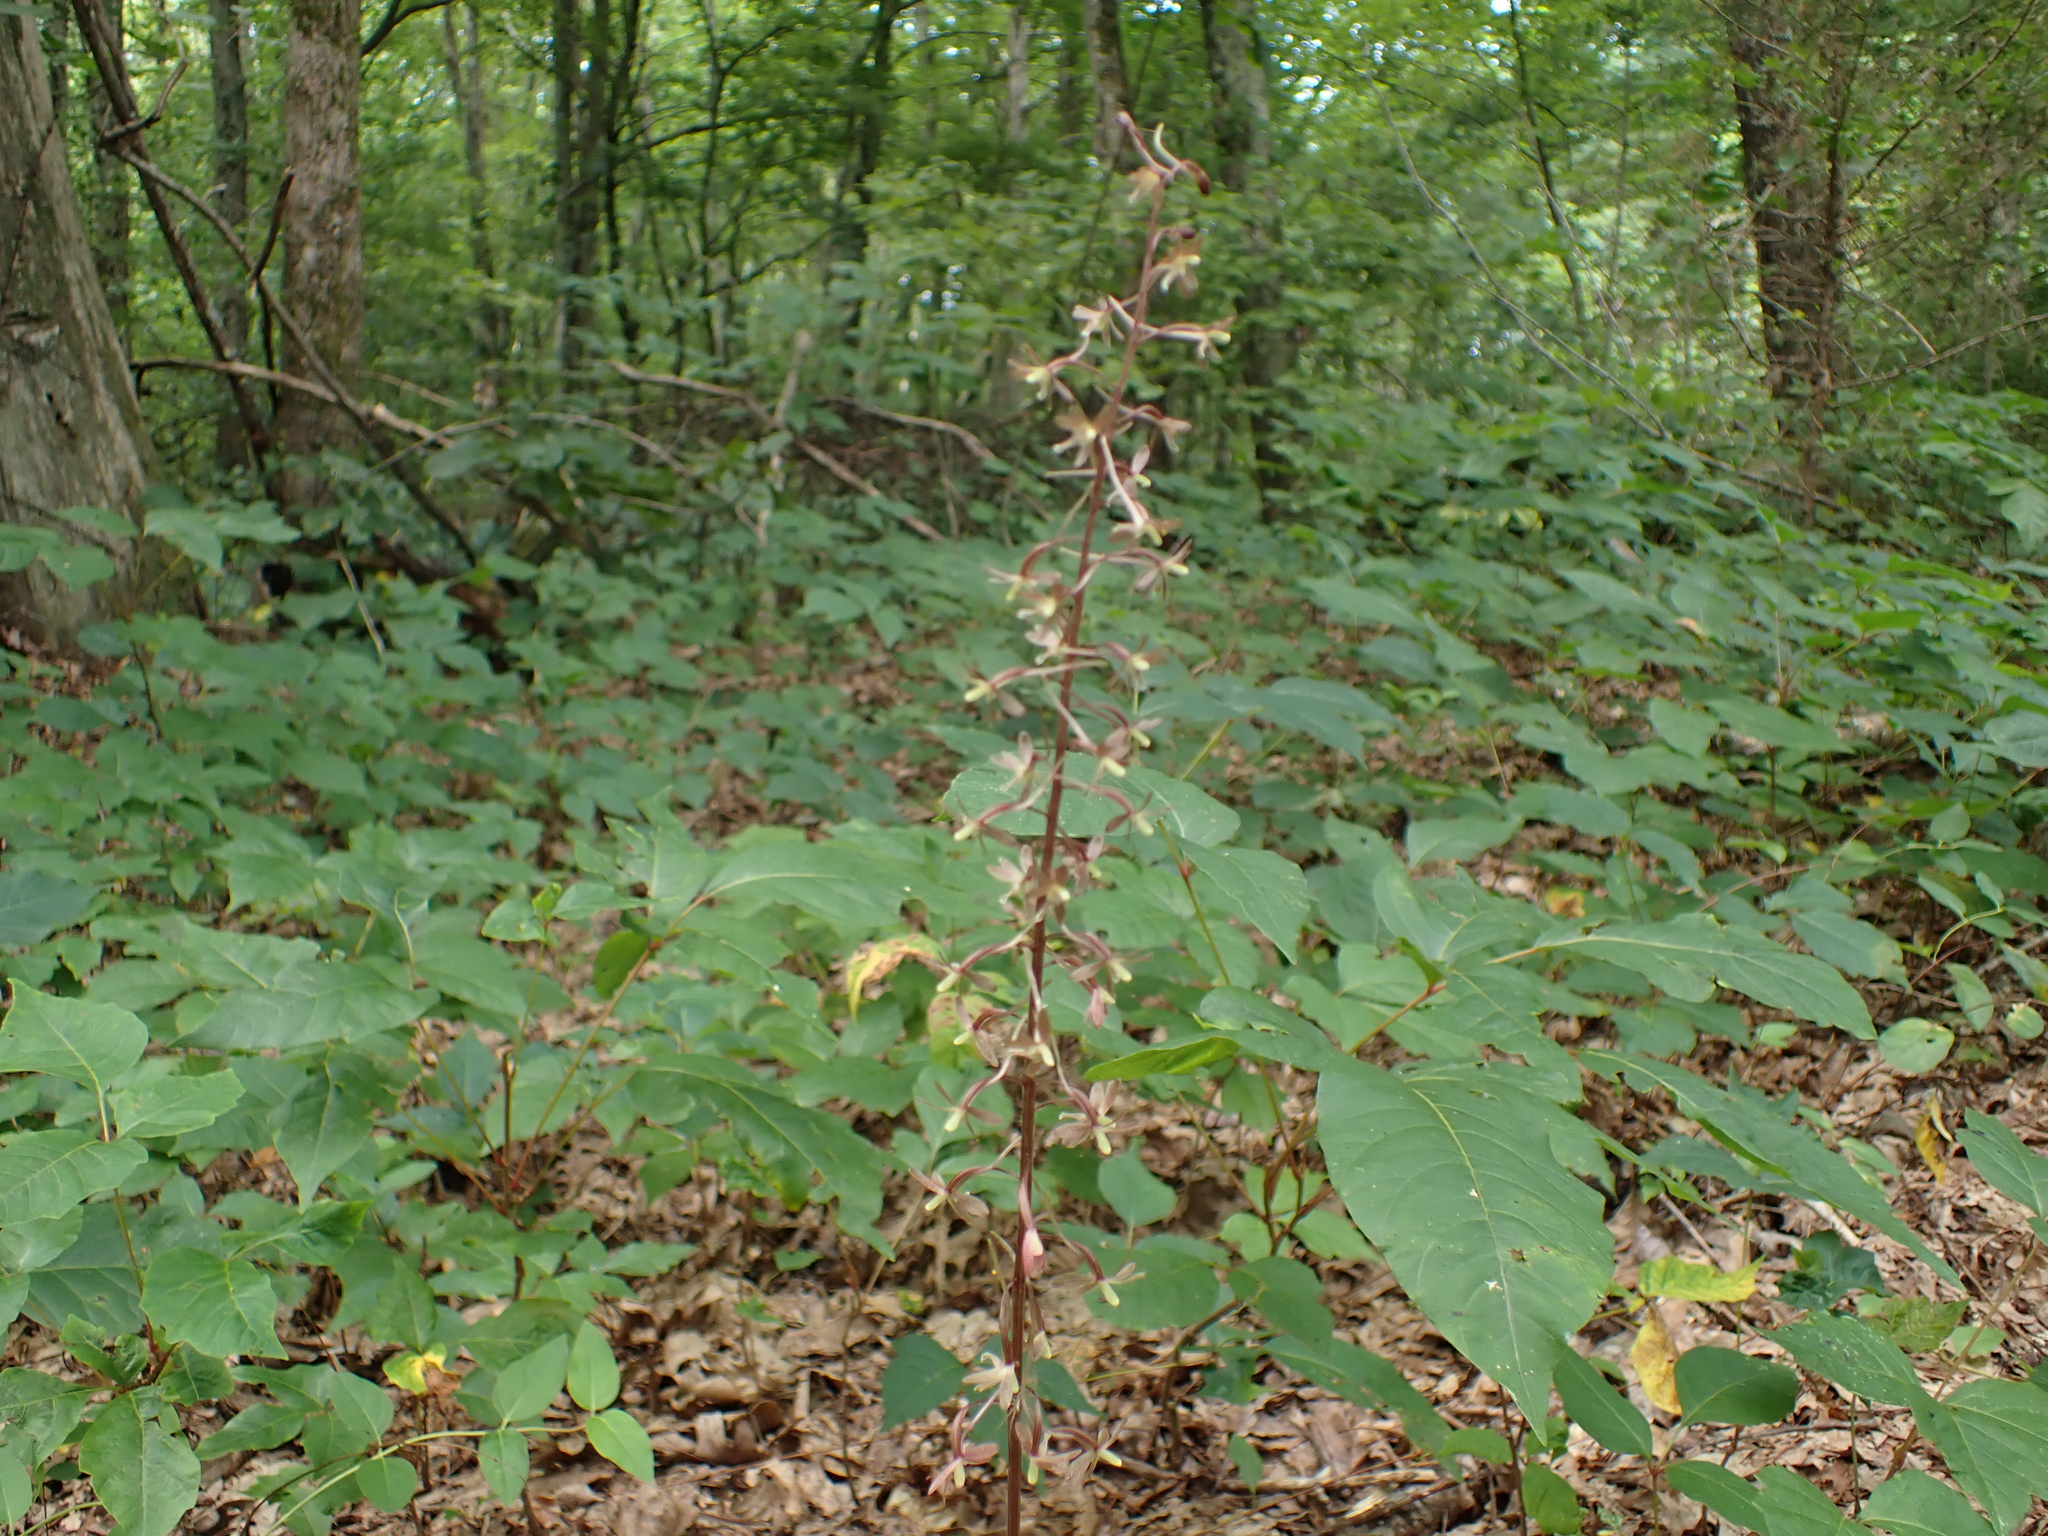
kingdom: Plantae
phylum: Tracheophyta
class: Liliopsida
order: Asparagales
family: Orchidaceae
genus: Tipularia
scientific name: Tipularia discolor
